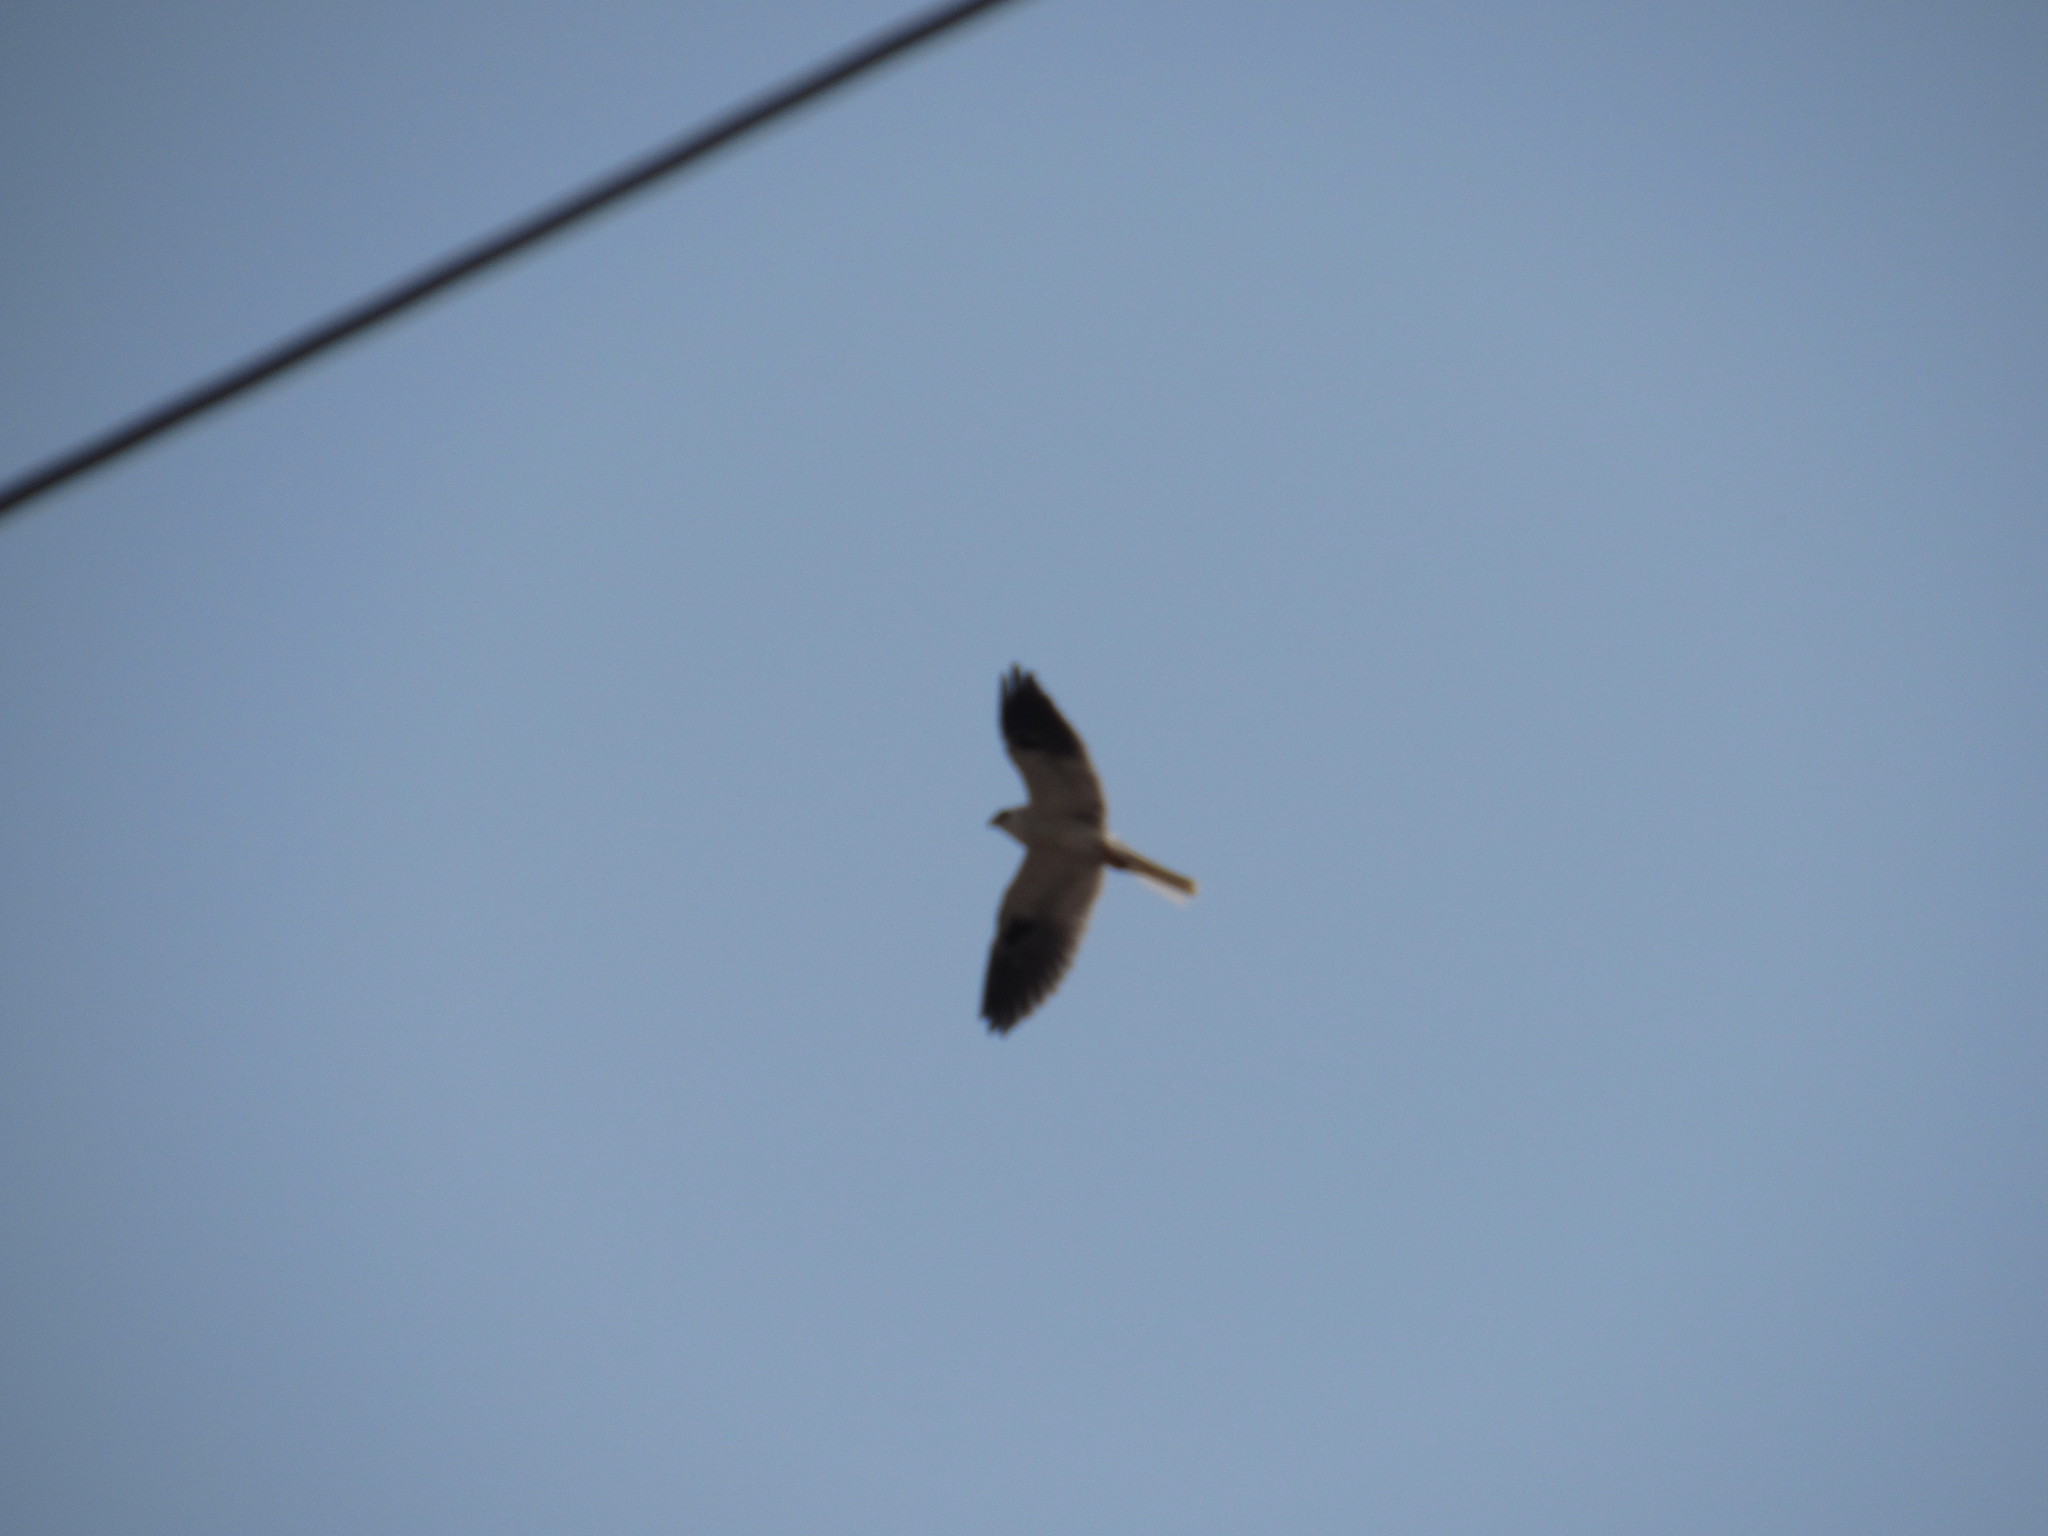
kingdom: Animalia
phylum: Chordata
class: Aves
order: Accipitriformes
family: Accipitridae
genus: Elanus
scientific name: Elanus leucurus
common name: White-tailed kite
